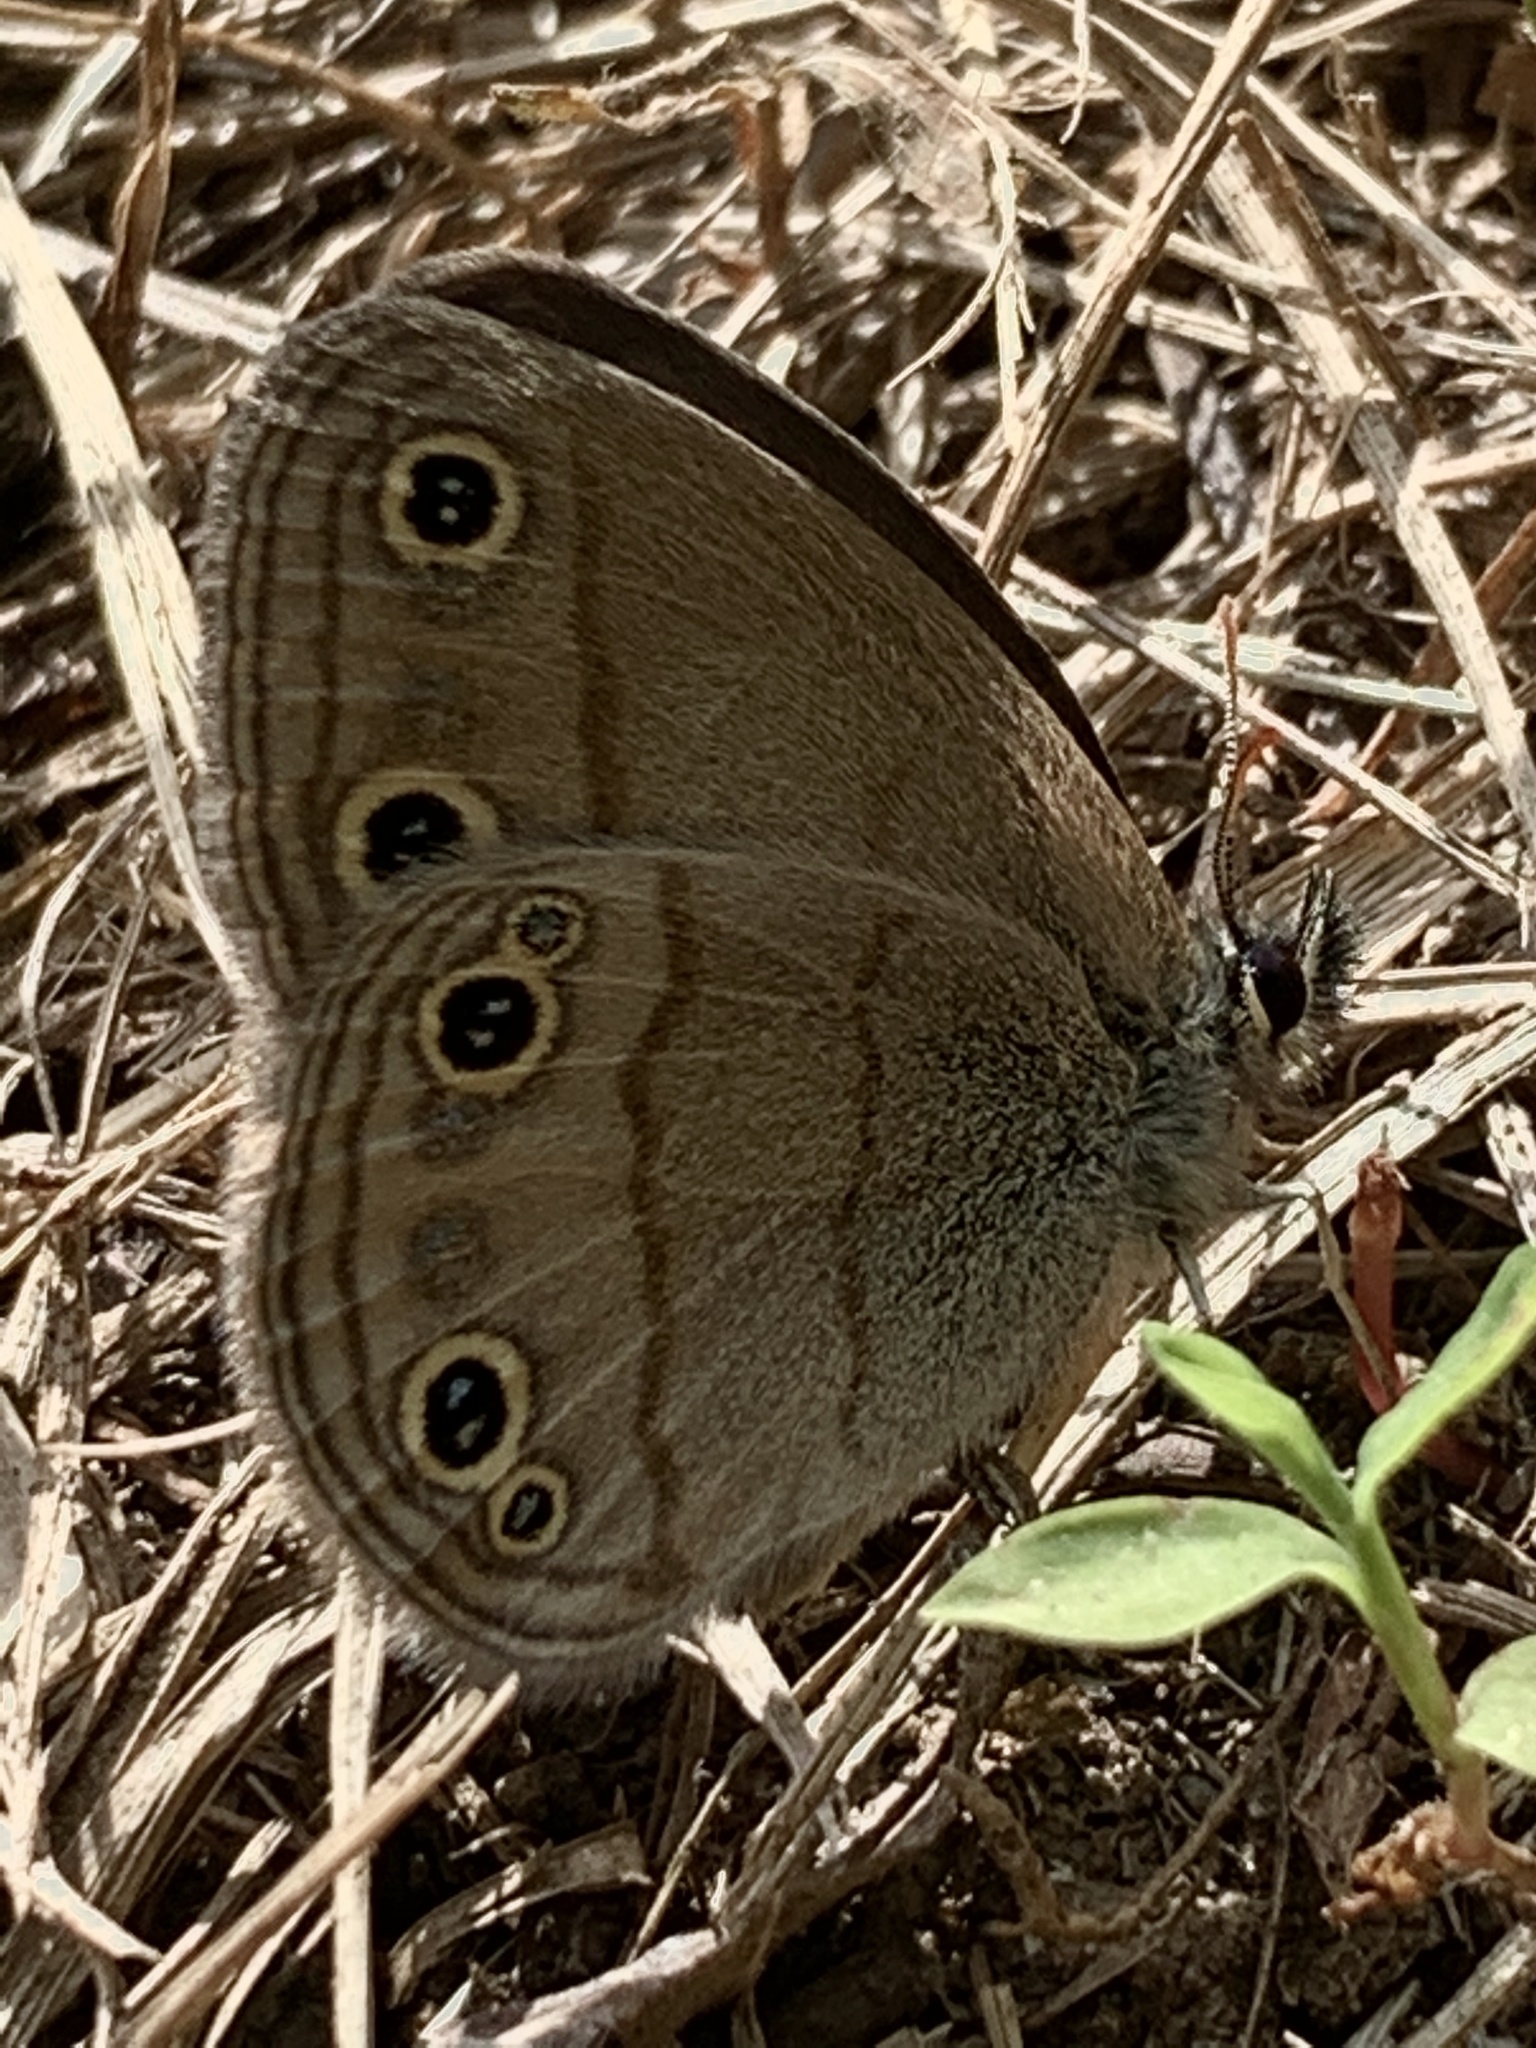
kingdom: Animalia
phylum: Arthropoda
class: Insecta
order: Lepidoptera
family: Nymphalidae
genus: Euptychia
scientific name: Euptychia cymela
